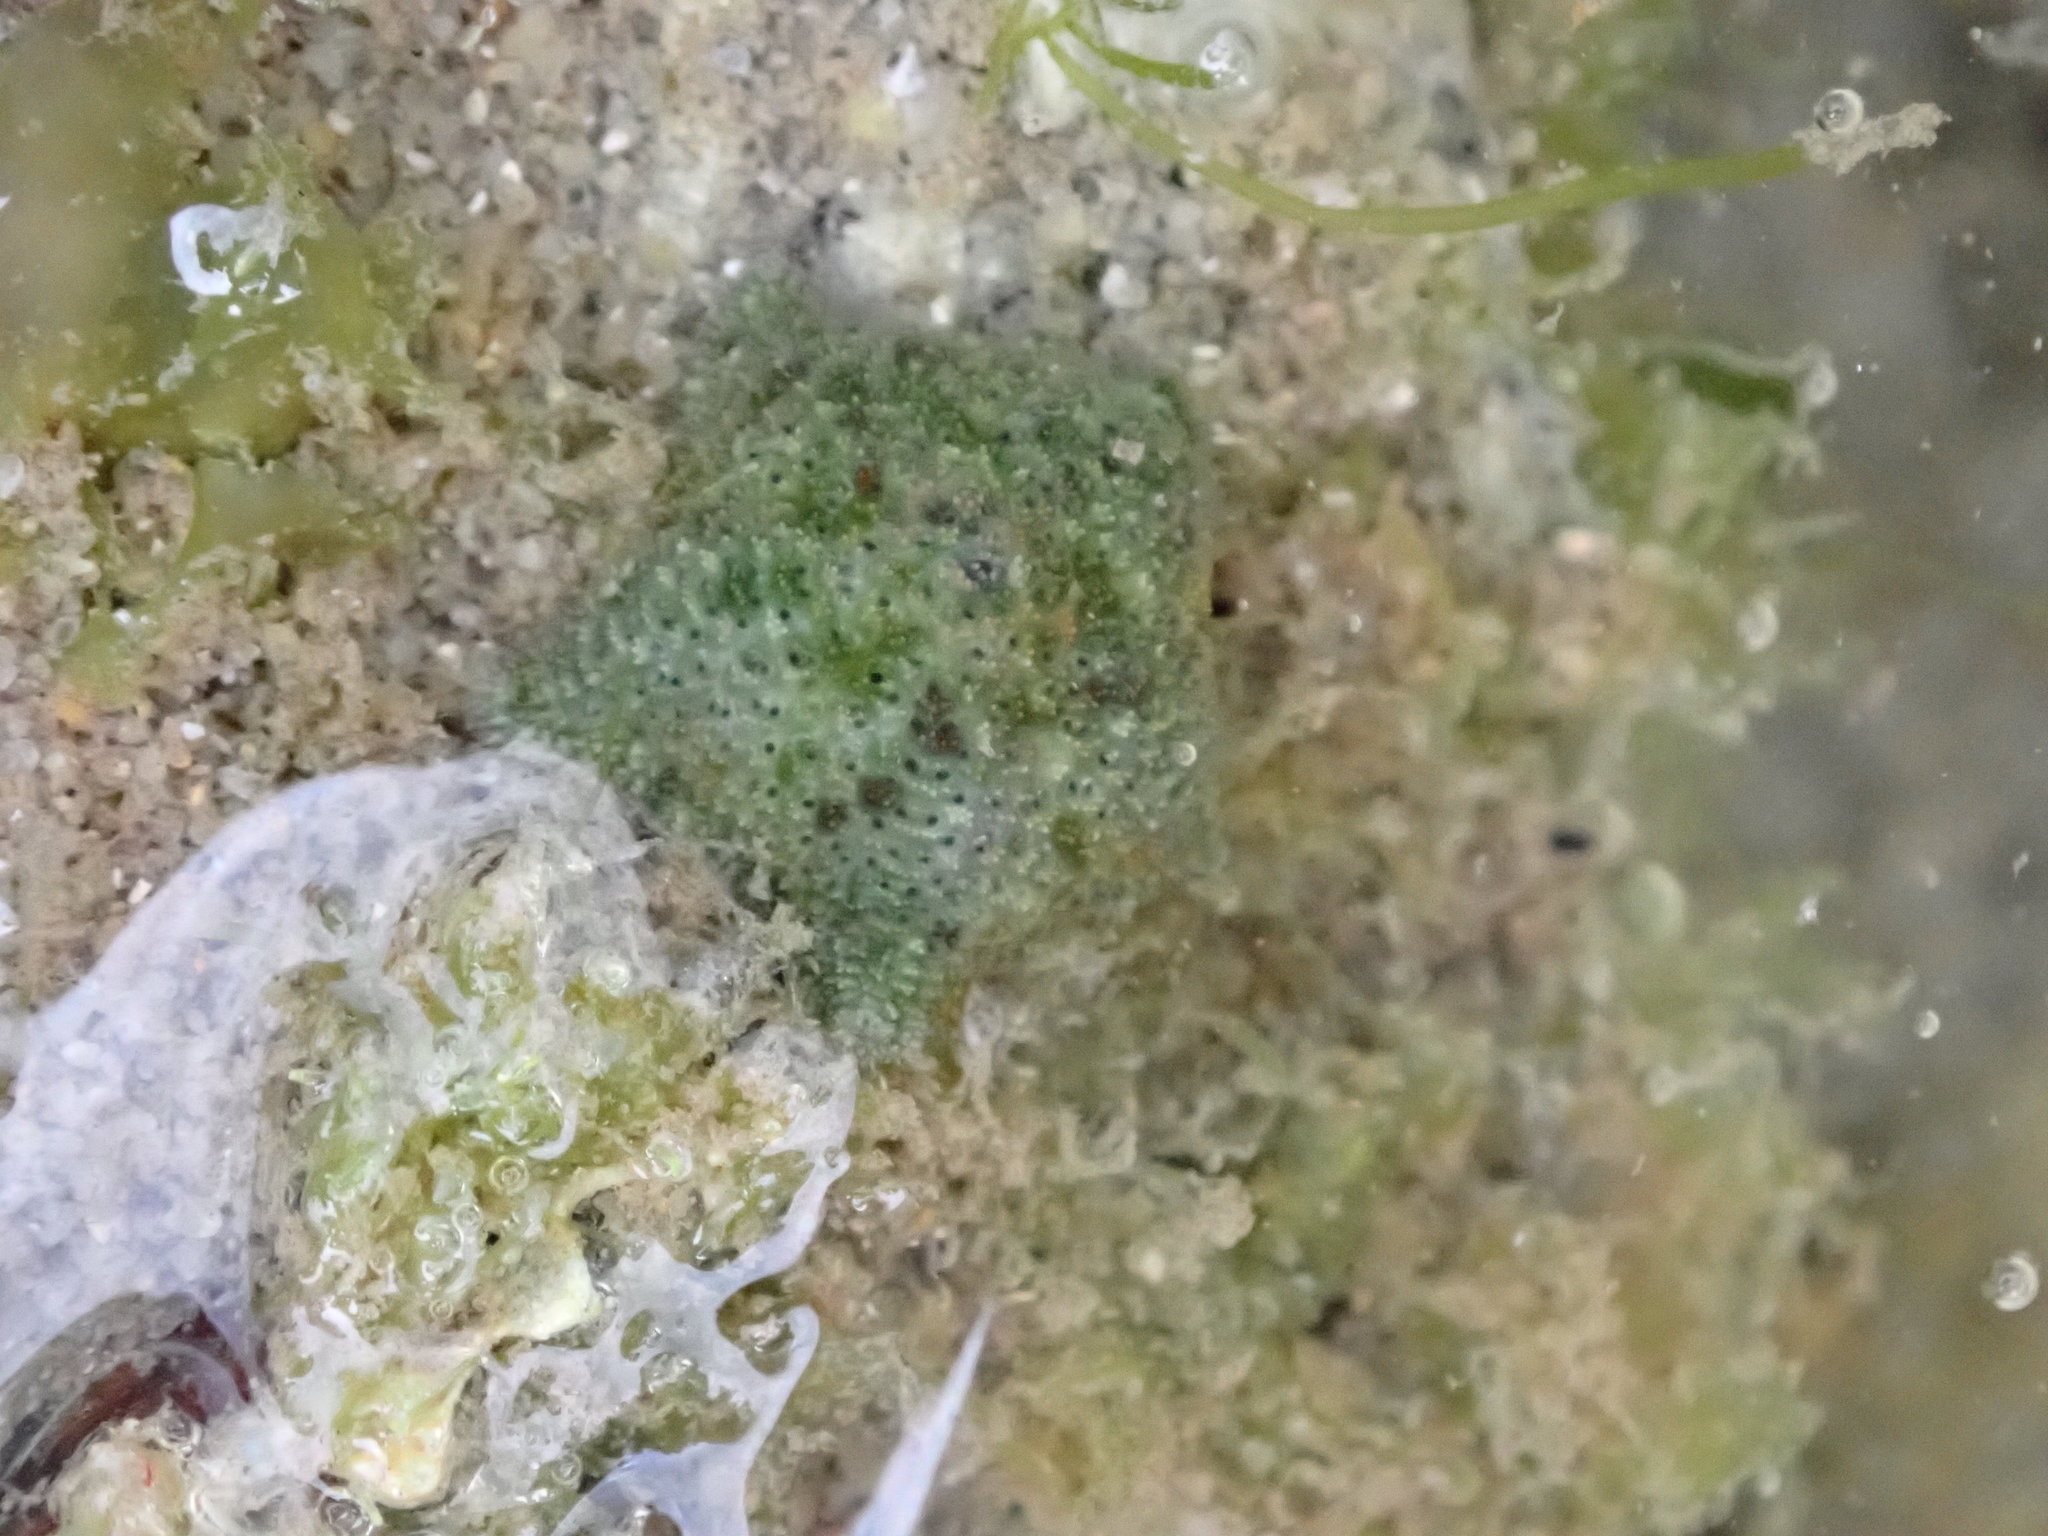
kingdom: Animalia
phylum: Echinodermata
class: Asteroidea
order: Valvatida
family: Asterinidae
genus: Parvulastra
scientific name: Parvulastra exigua
